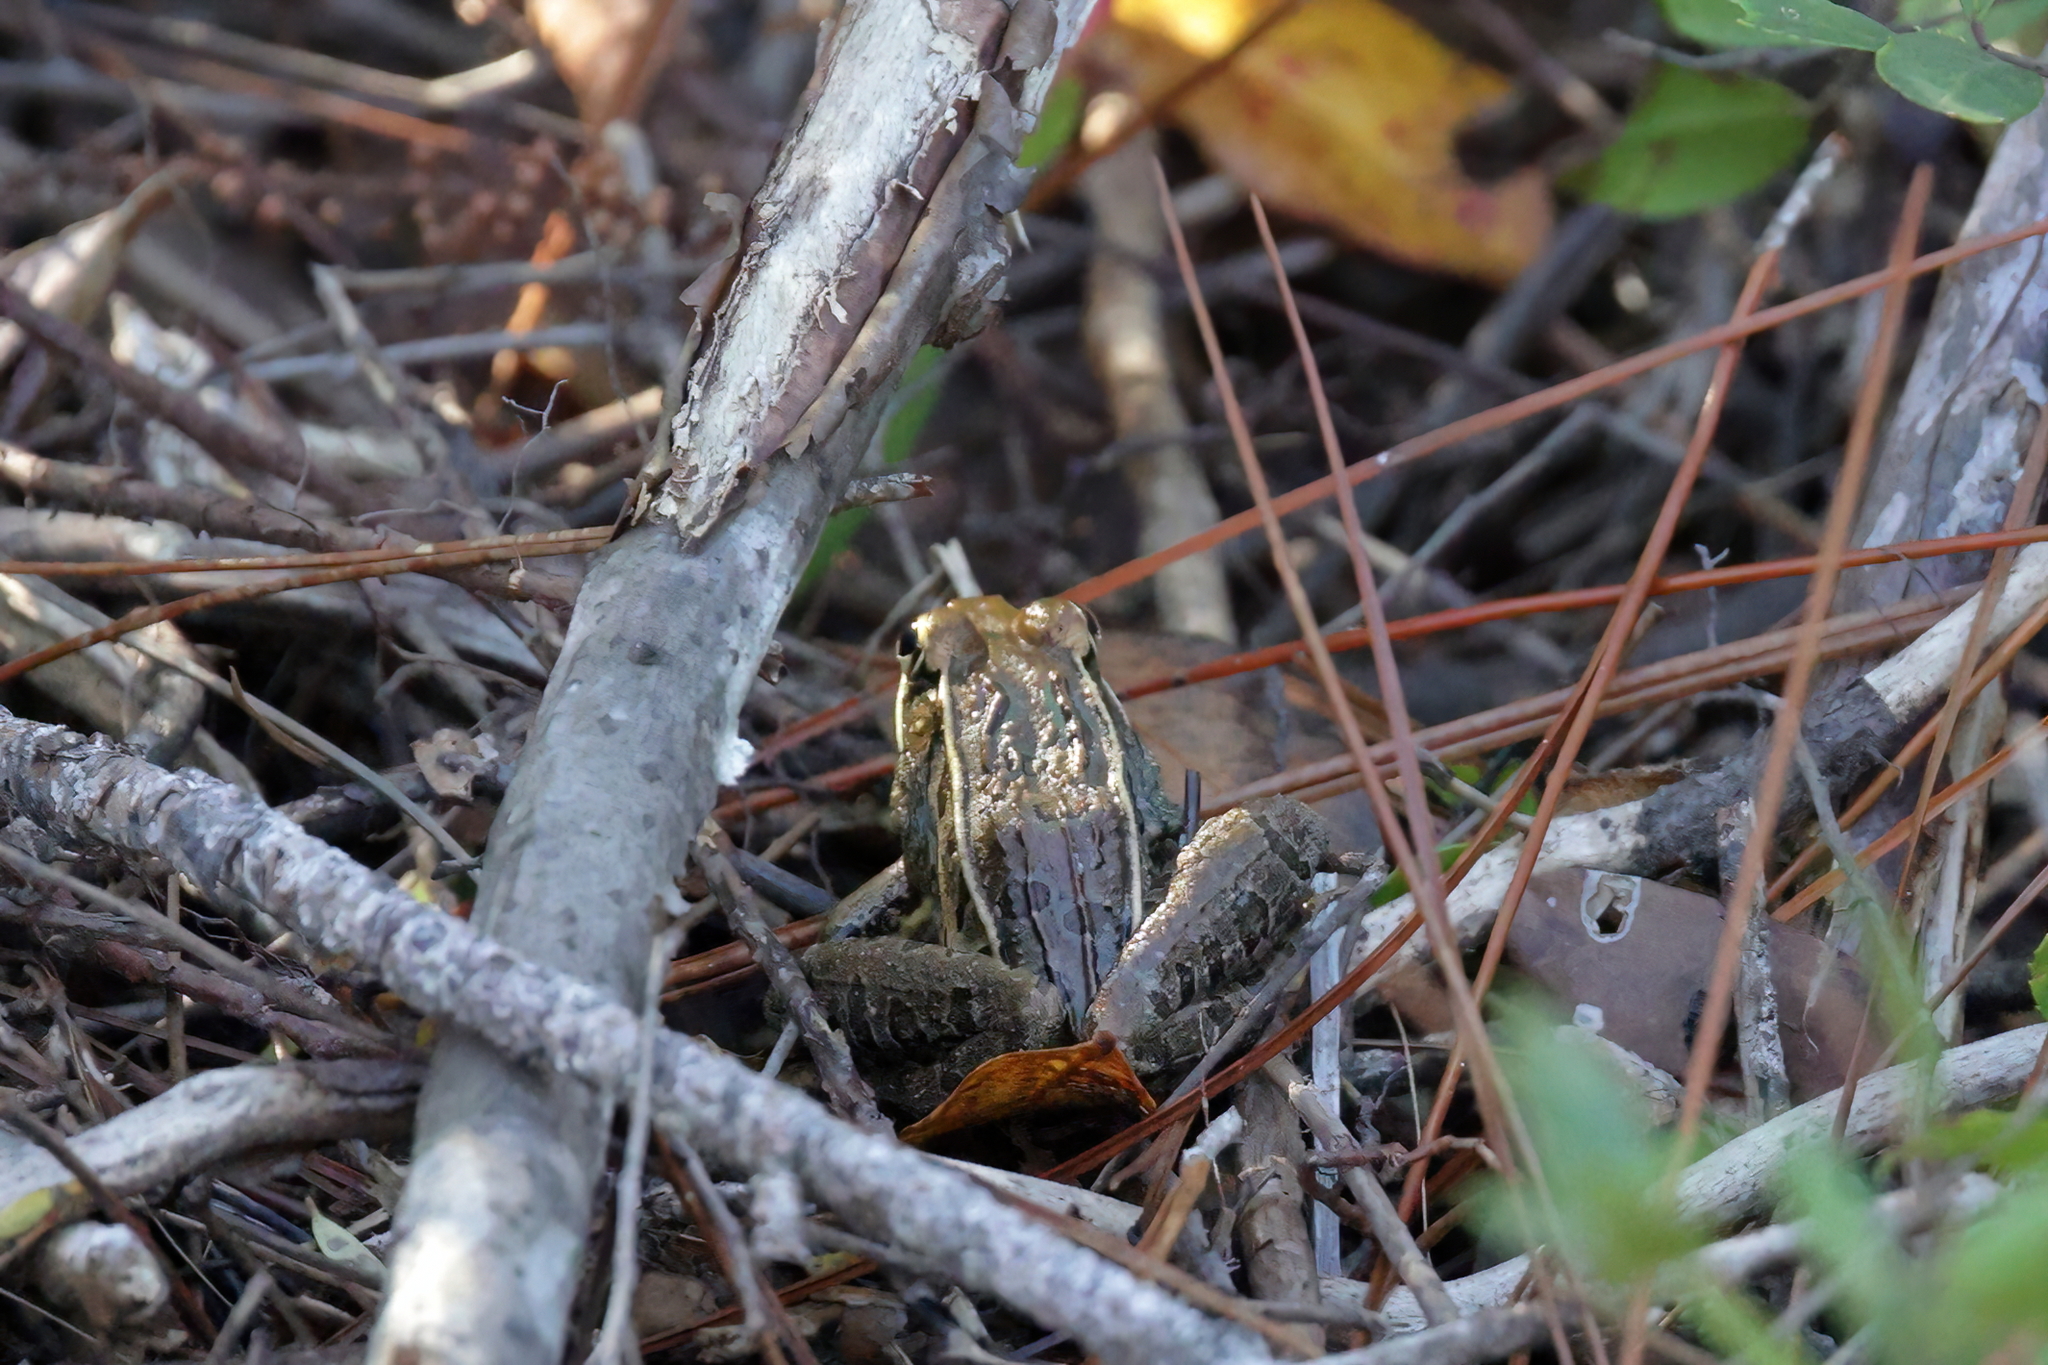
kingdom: Animalia
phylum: Chordata
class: Amphibia
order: Anura
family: Ranidae
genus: Lithobates
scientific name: Lithobates sphenocephalus
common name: Southern leopard frog
